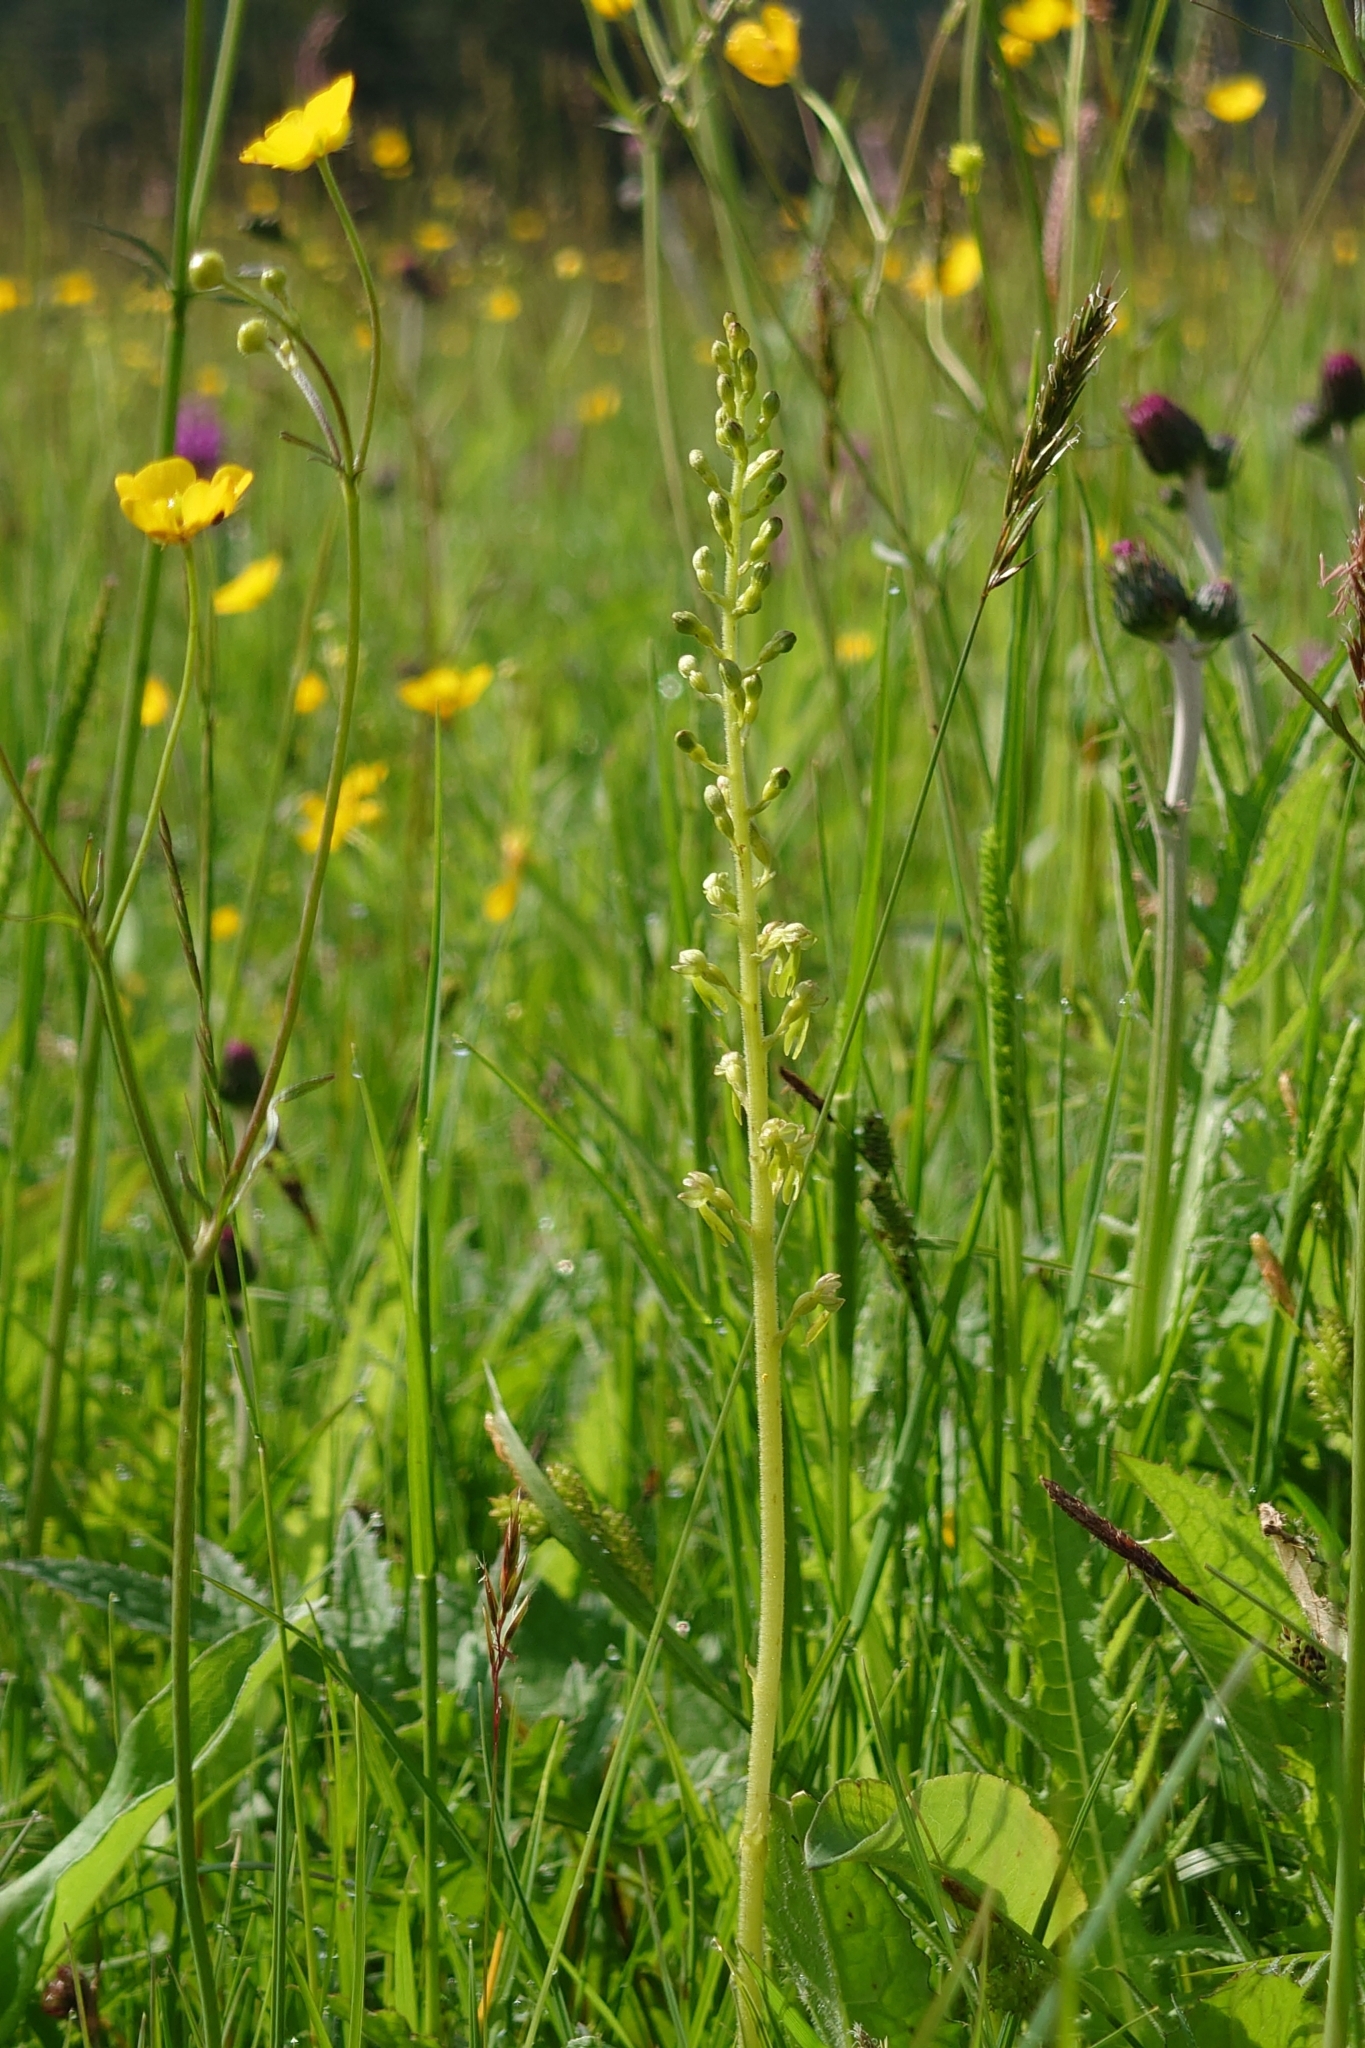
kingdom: Plantae
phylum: Tracheophyta
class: Liliopsida
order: Asparagales
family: Orchidaceae
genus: Neottia
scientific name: Neottia ovata
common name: Common twayblade
